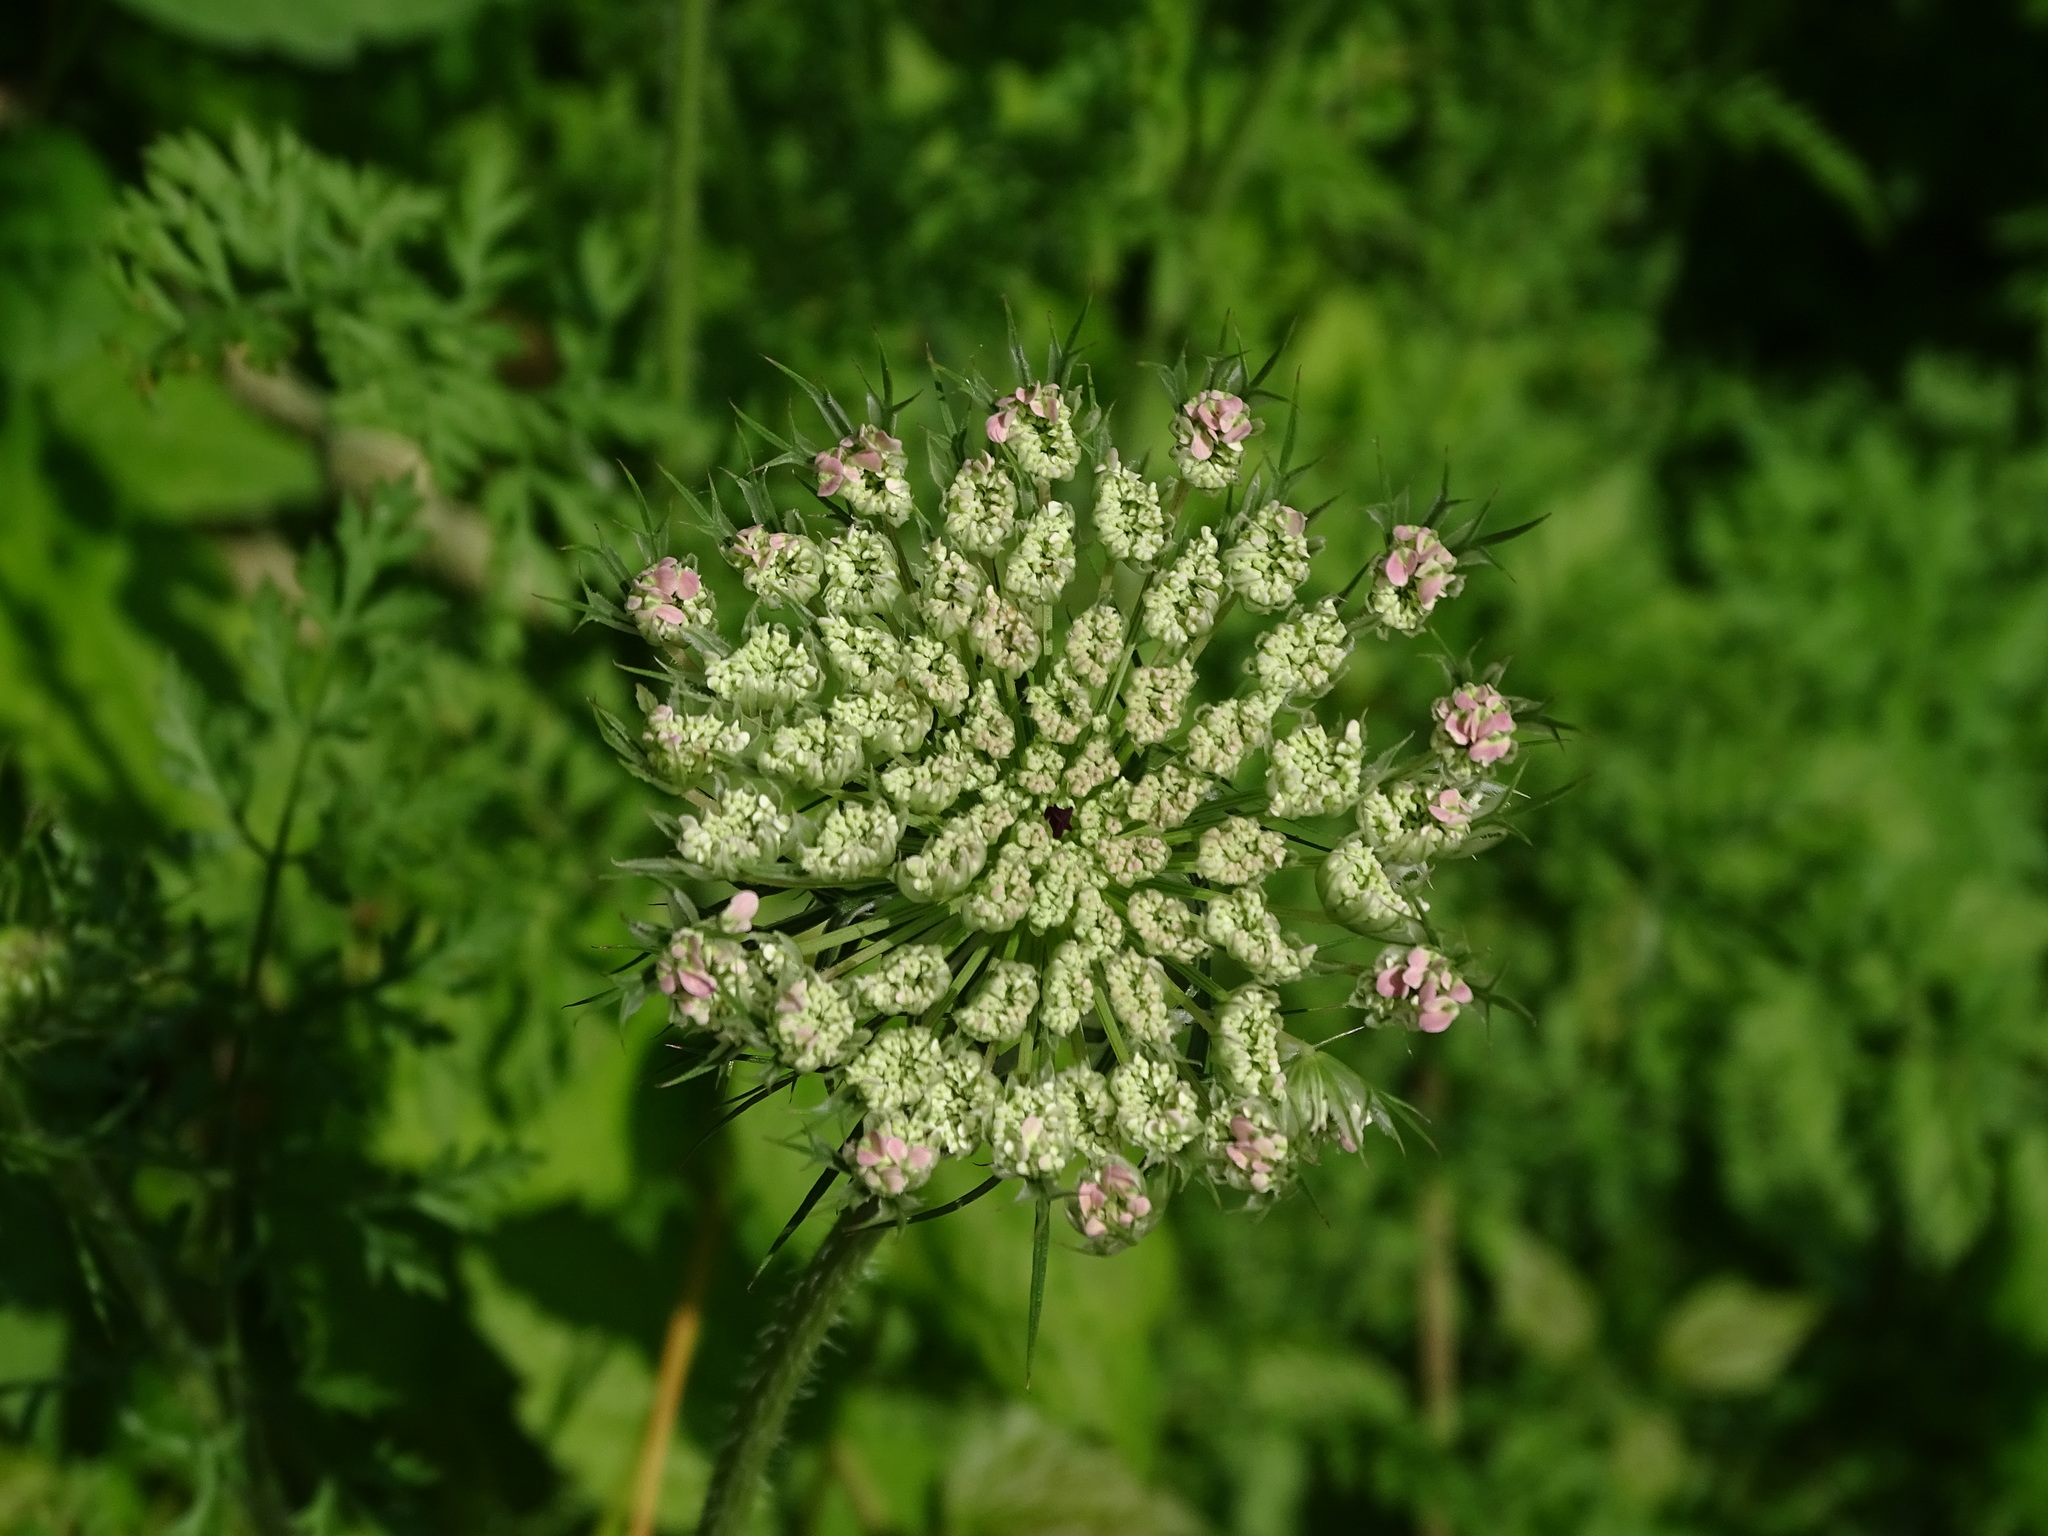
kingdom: Plantae
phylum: Tracheophyta
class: Magnoliopsida
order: Apiales
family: Apiaceae
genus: Daucus
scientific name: Daucus carota
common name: Wild carrot
